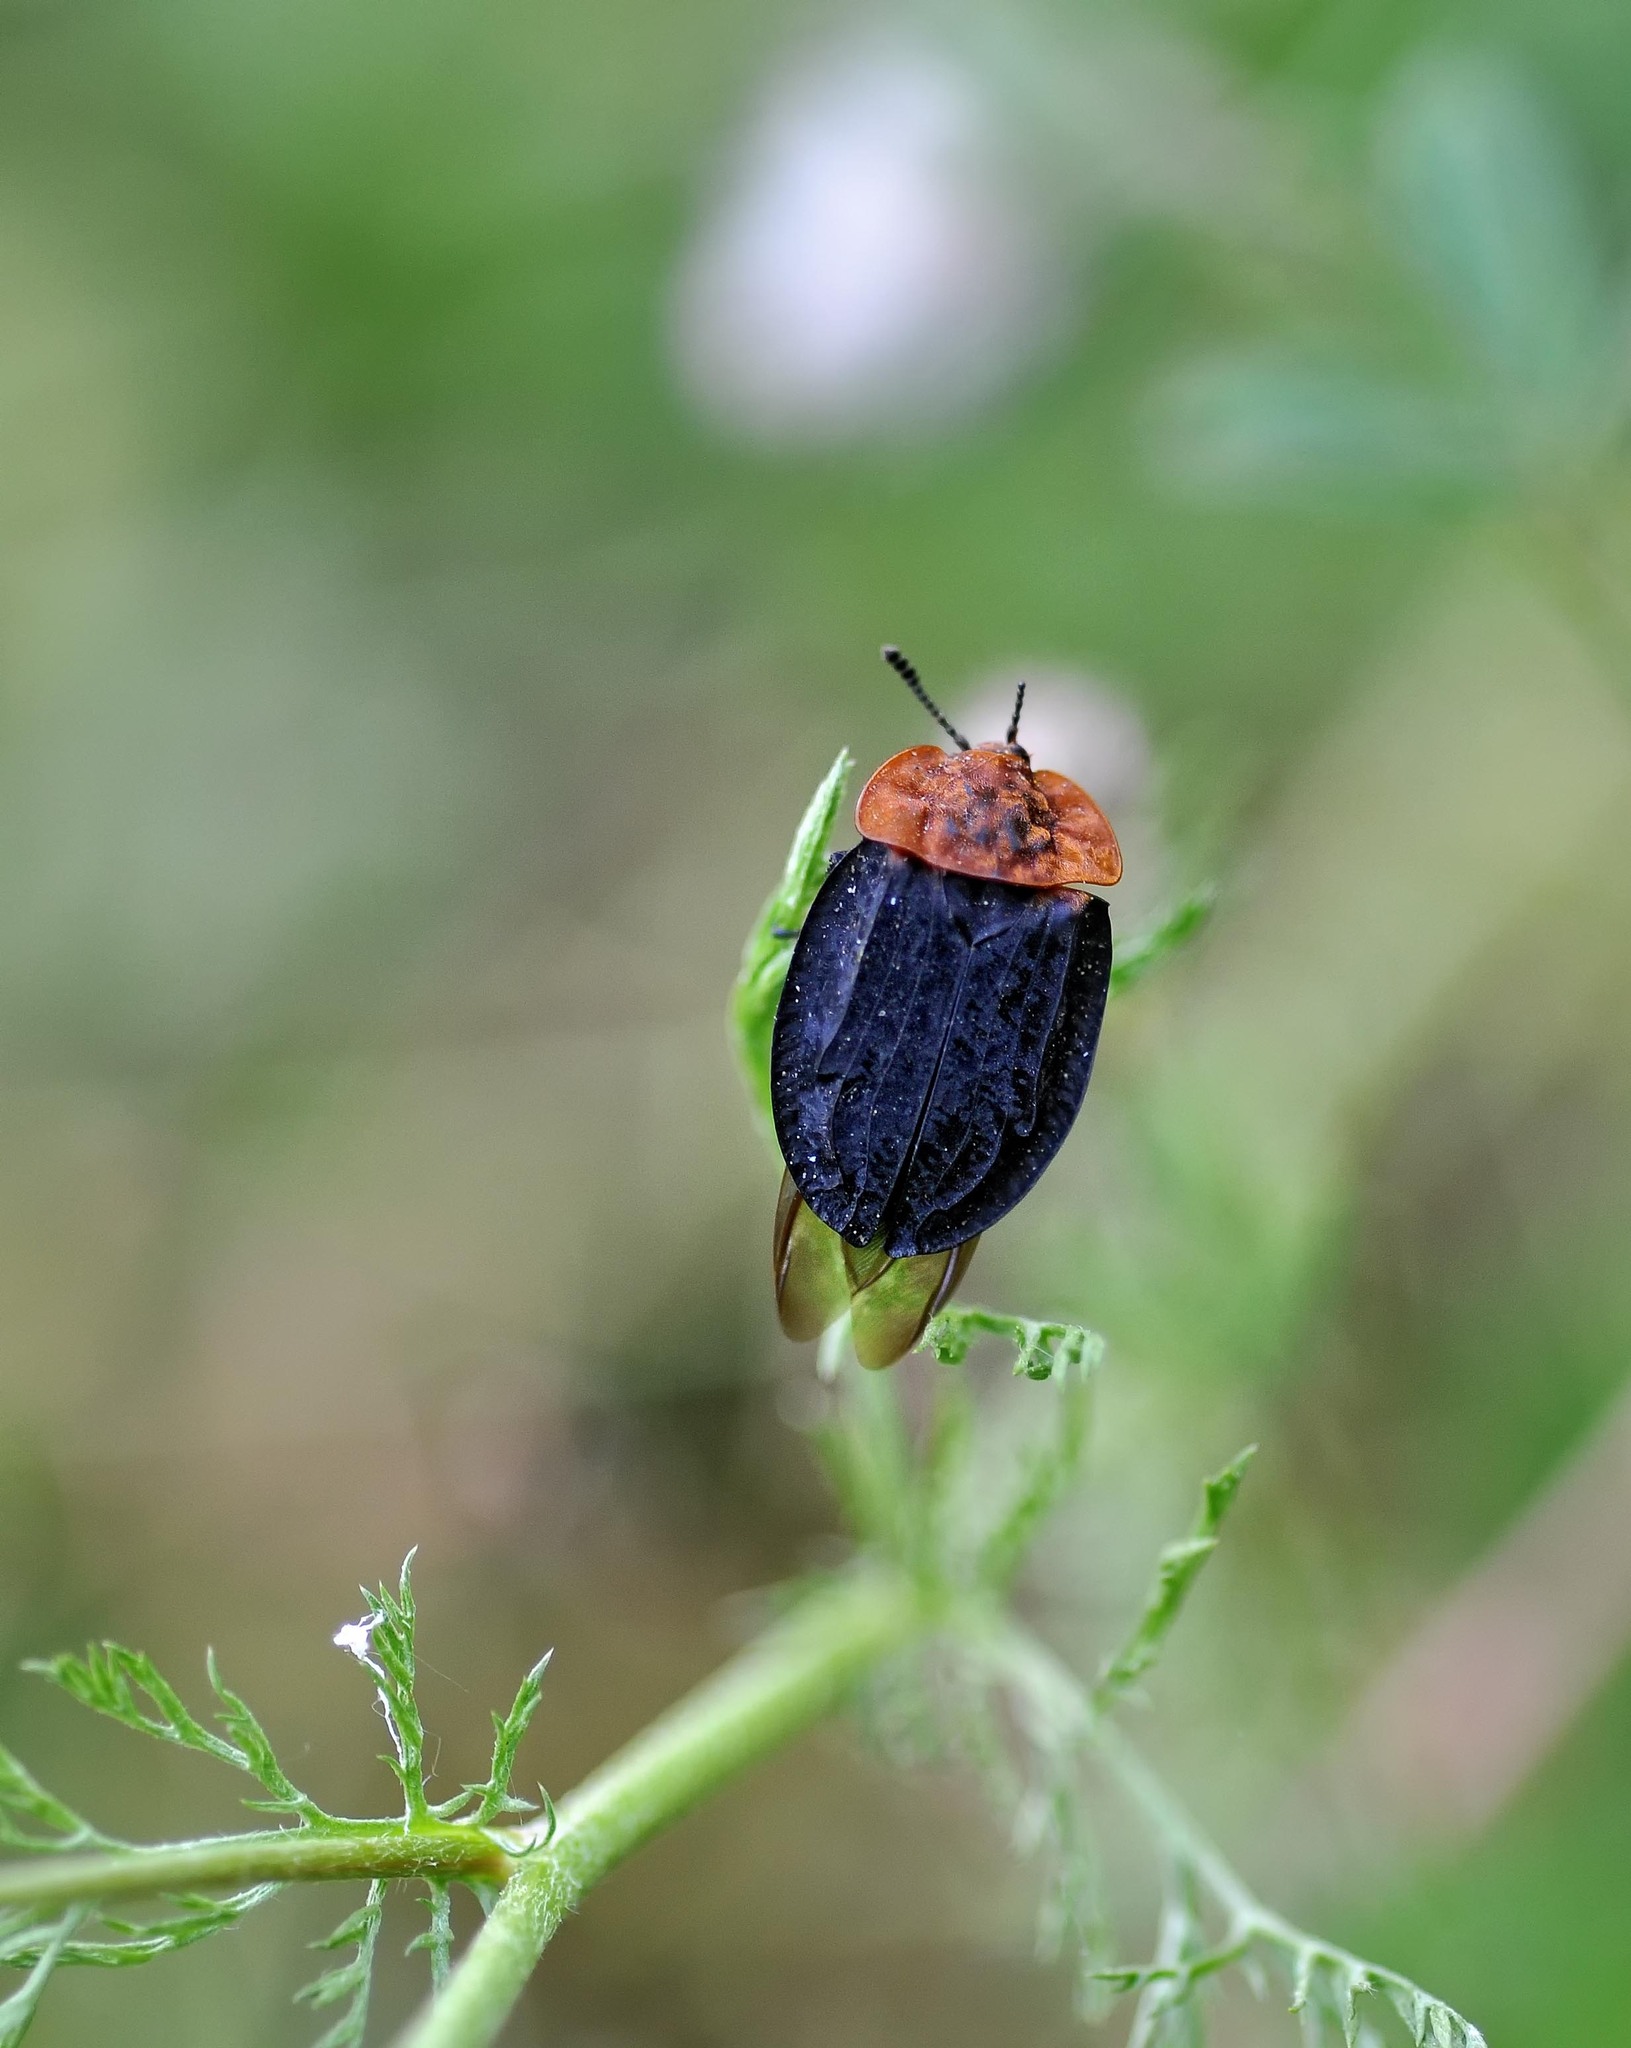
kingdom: Animalia
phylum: Arthropoda
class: Insecta
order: Coleoptera
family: Staphylinidae
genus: Oiceoptoma
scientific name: Oiceoptoma thoracicum
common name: Red-breasted carrion beetle
